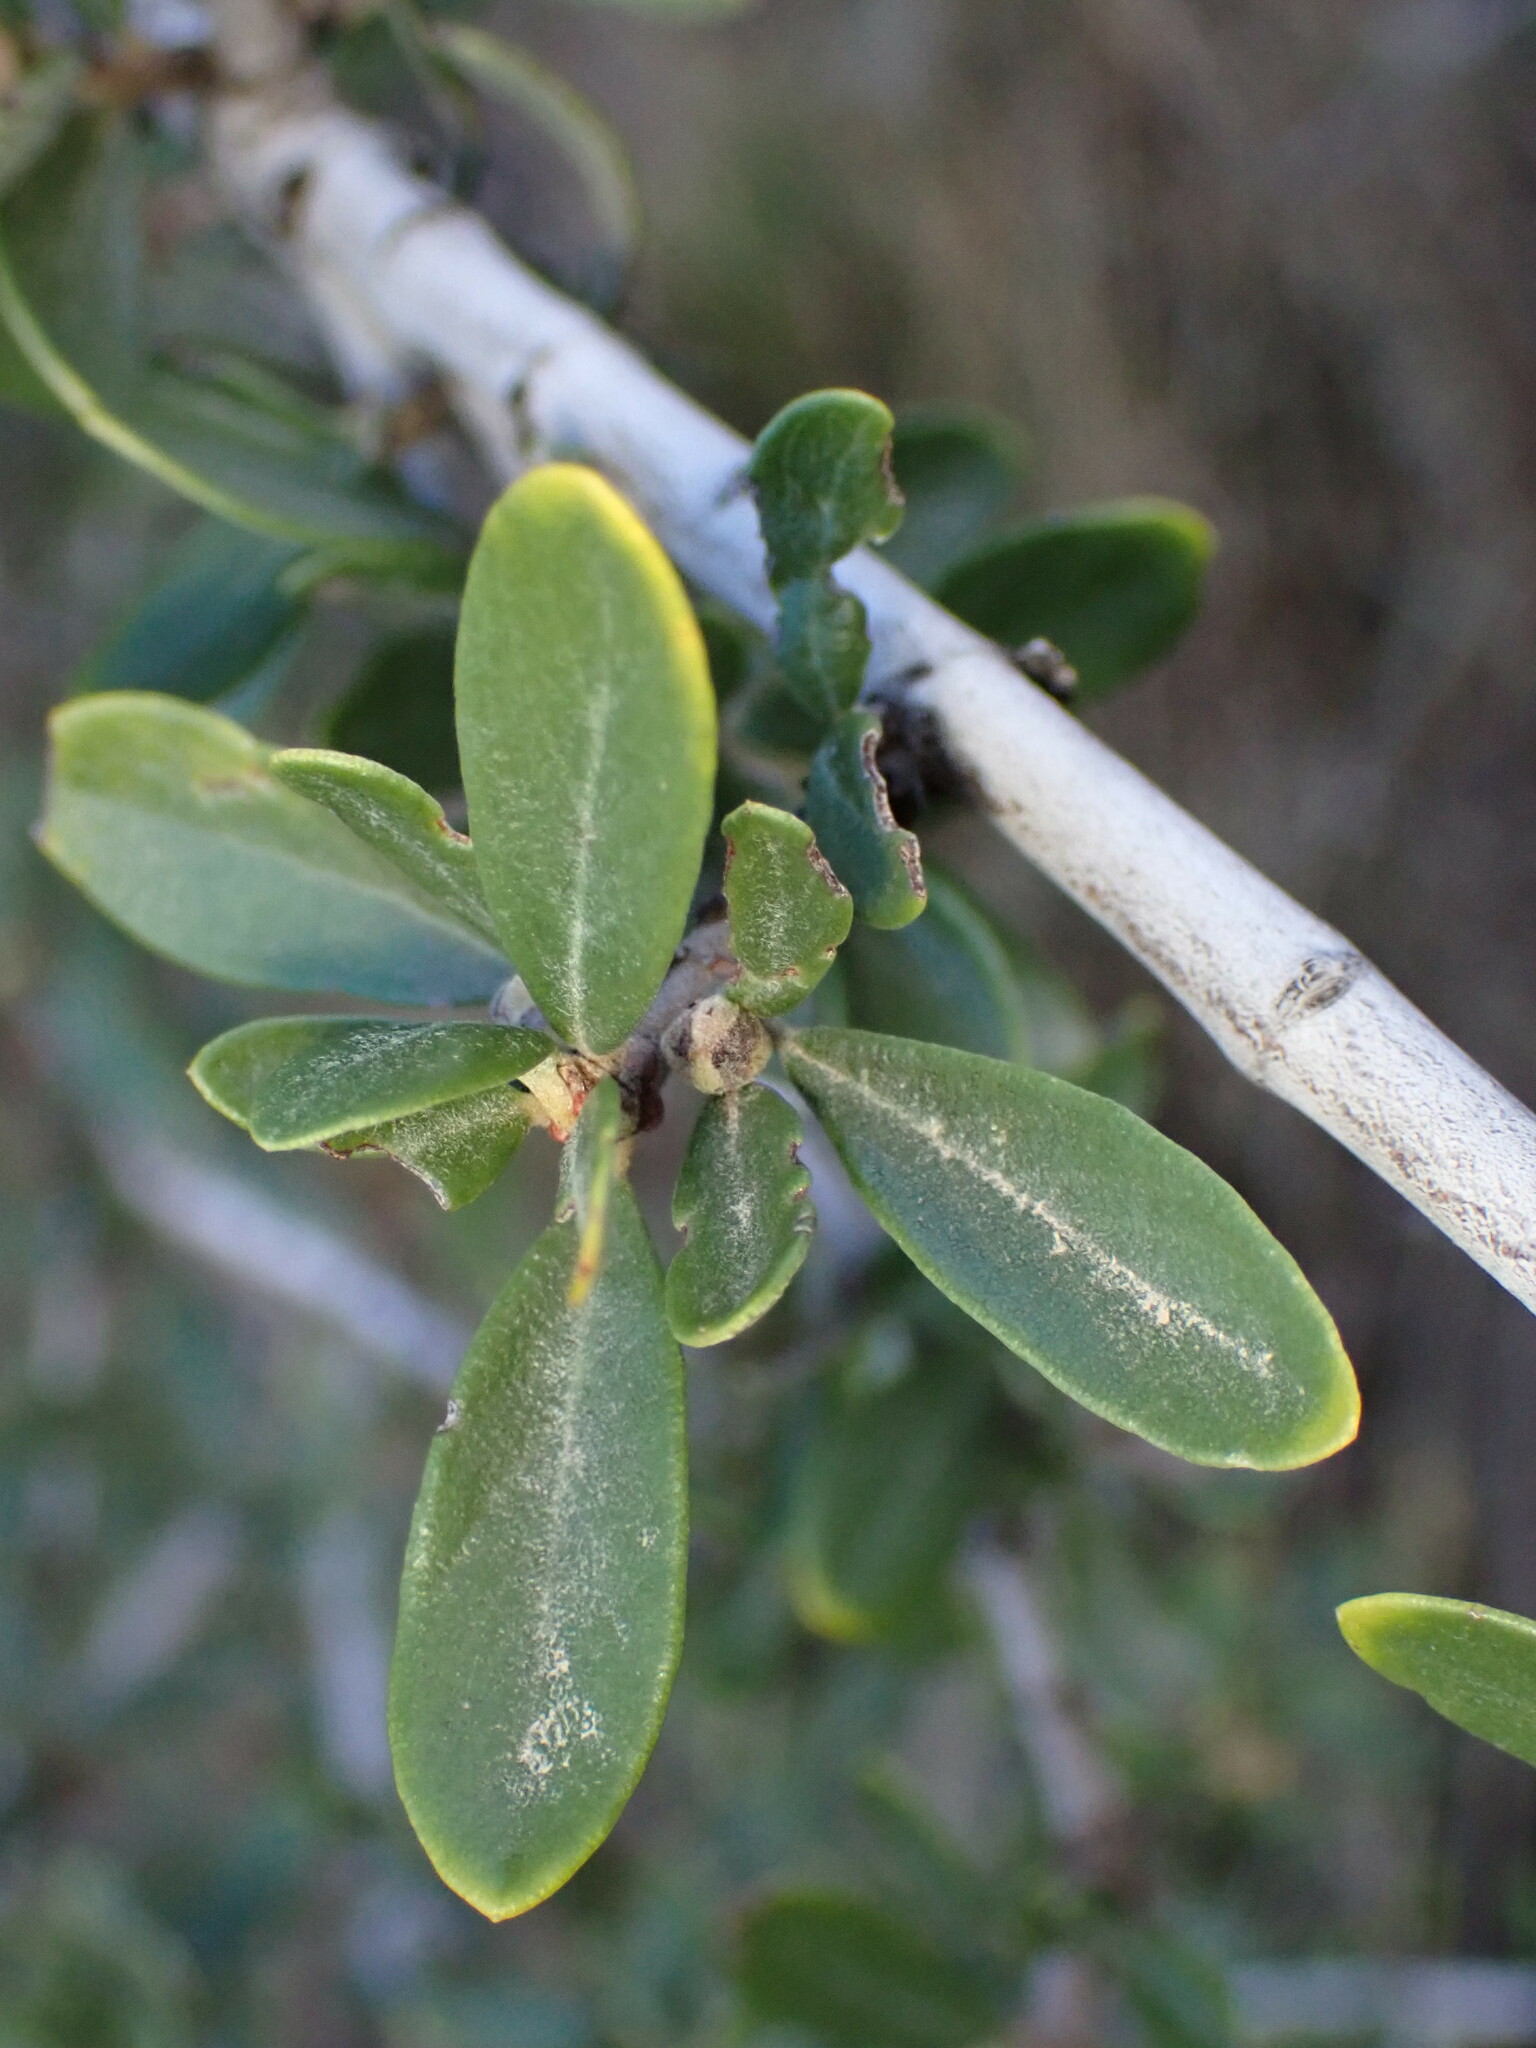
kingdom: Plantae
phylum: Tracheophyta
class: Magnoliopsida
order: Rosales
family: Rhamnaceae
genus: Ceanothus
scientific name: Ceanothus cuneatus
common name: Cuneate ceanothus
